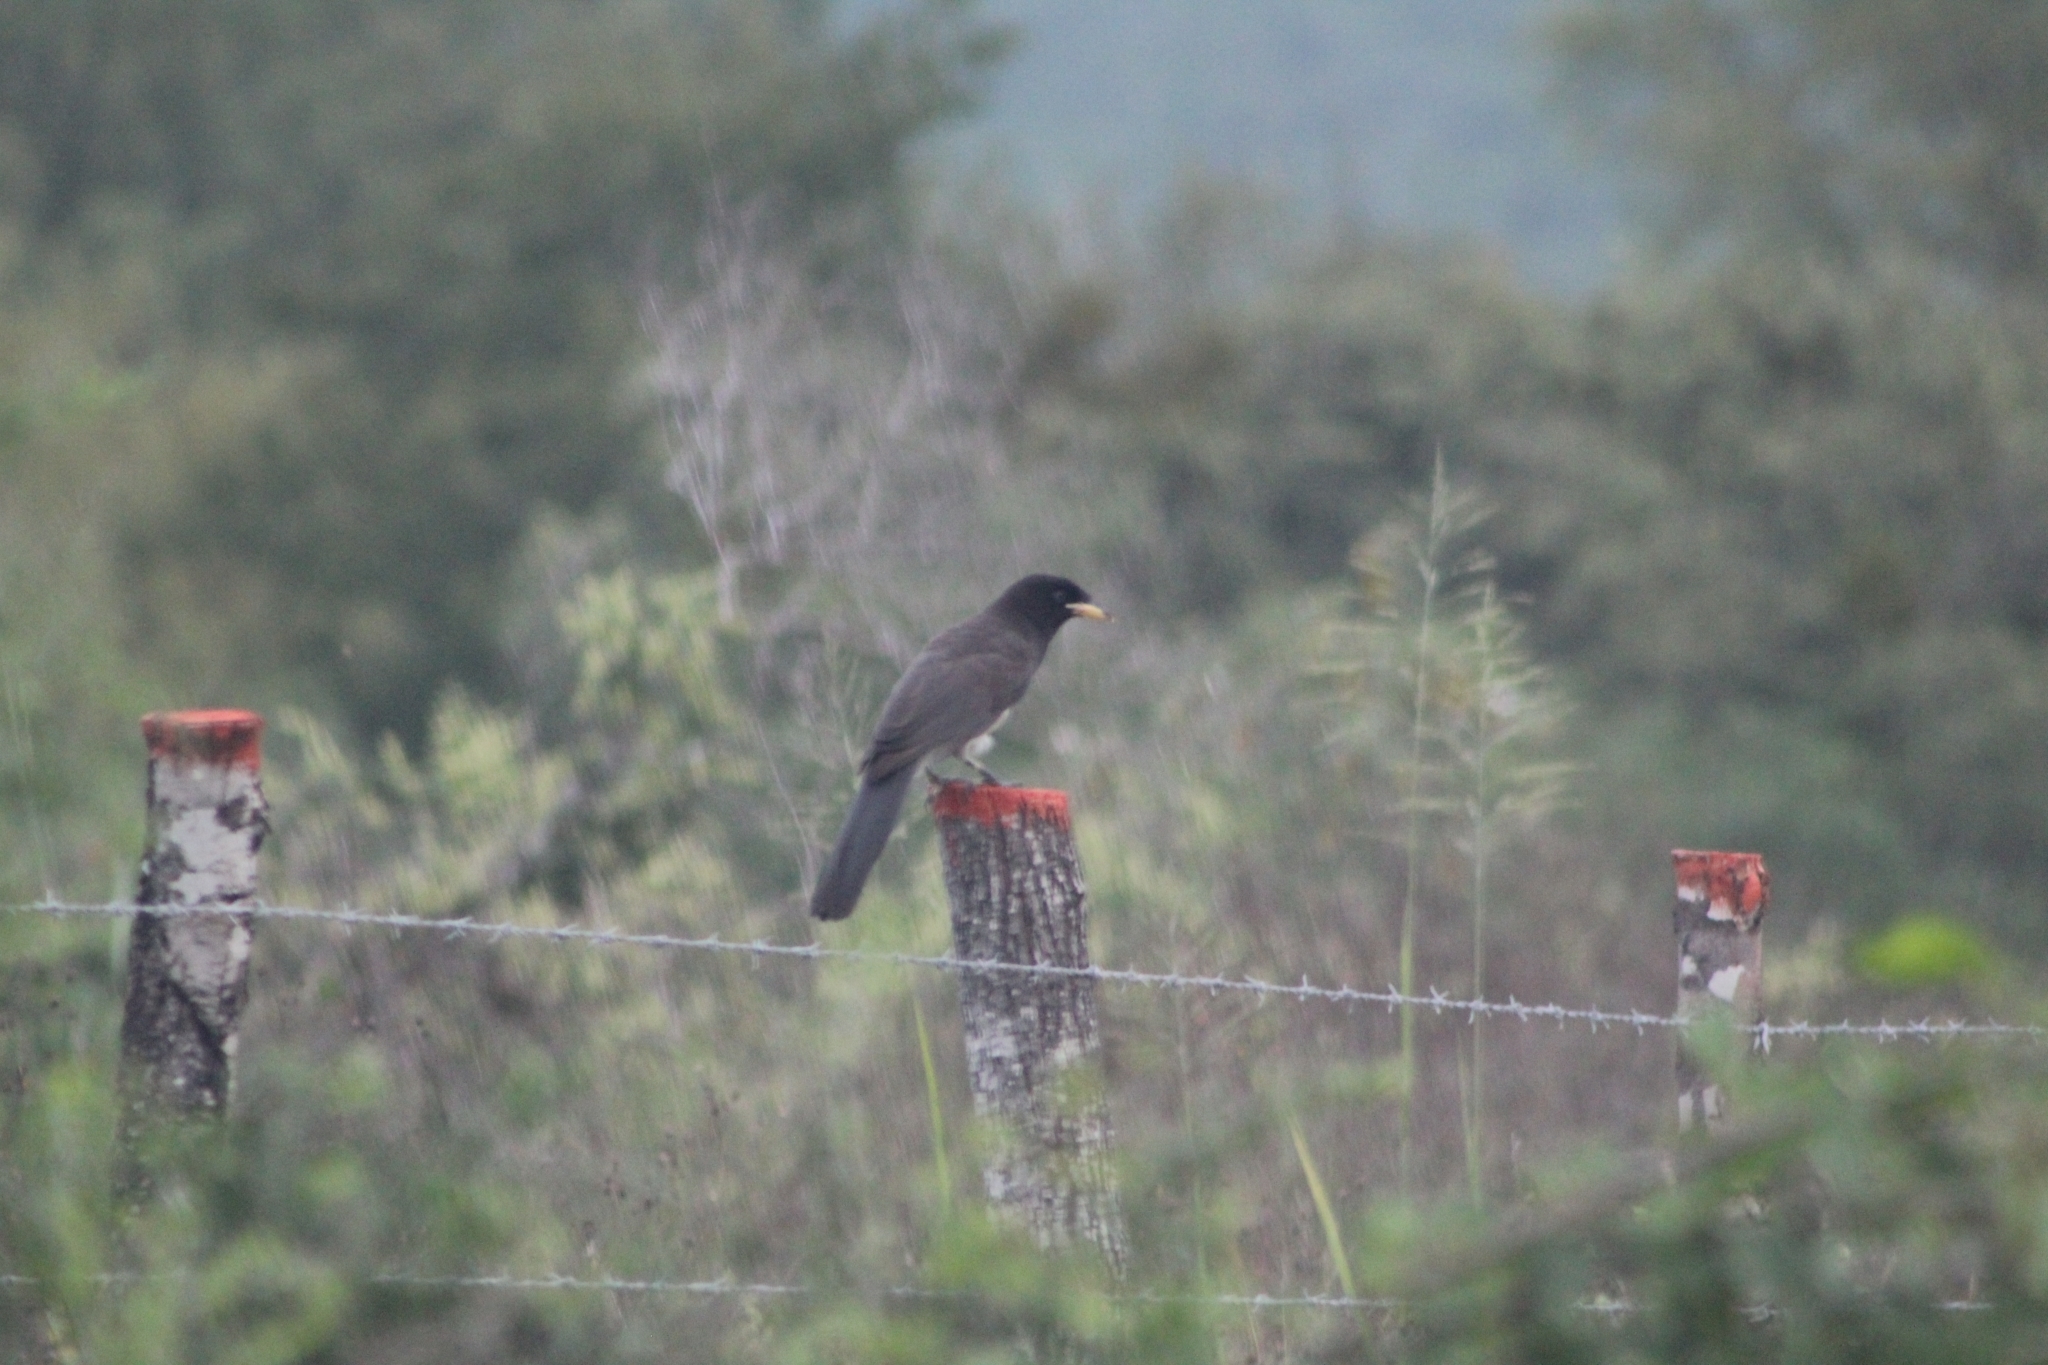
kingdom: Animalia
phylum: Chordata
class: Aves
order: Passeriformes
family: Corvidae
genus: Psilorhinus
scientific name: Psilorhinus morio
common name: Brown jay
